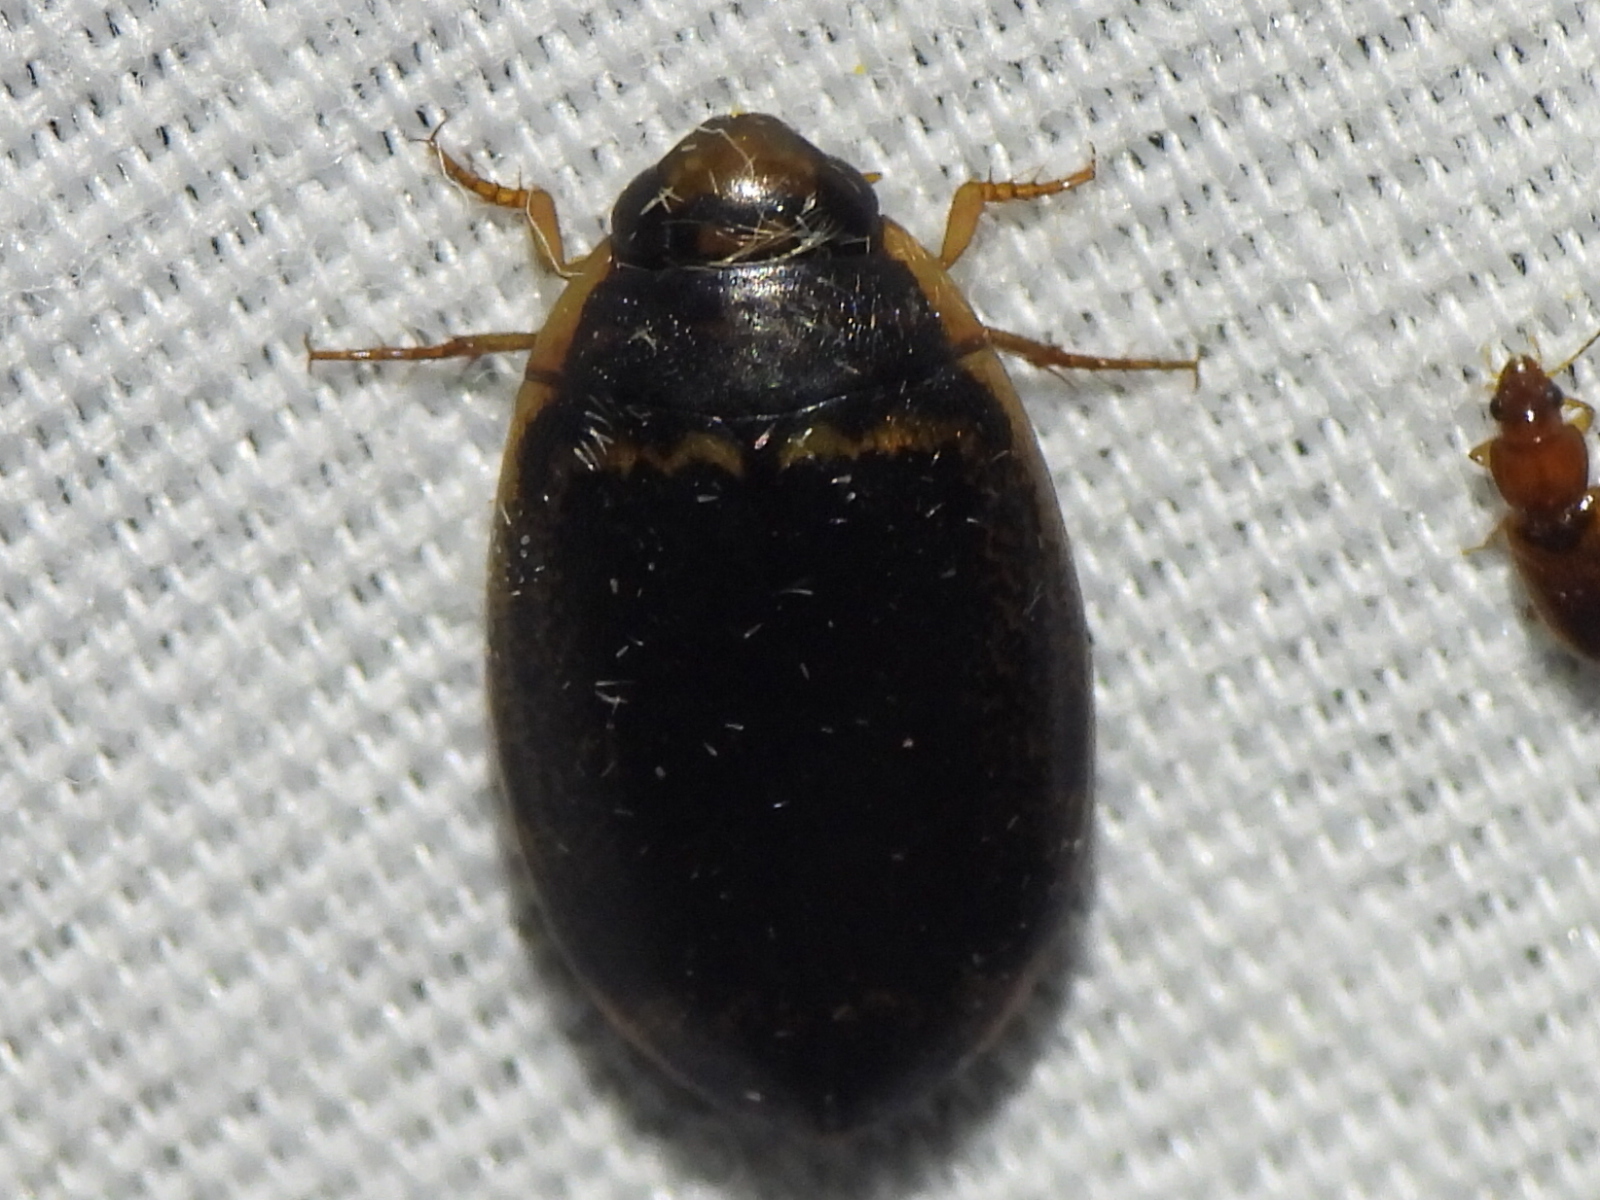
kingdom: Animalia
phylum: Arthropoda
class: Insecta
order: Coleoptera
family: Dytiscidae
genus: Thermonectus
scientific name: Thermonectus basillaris
